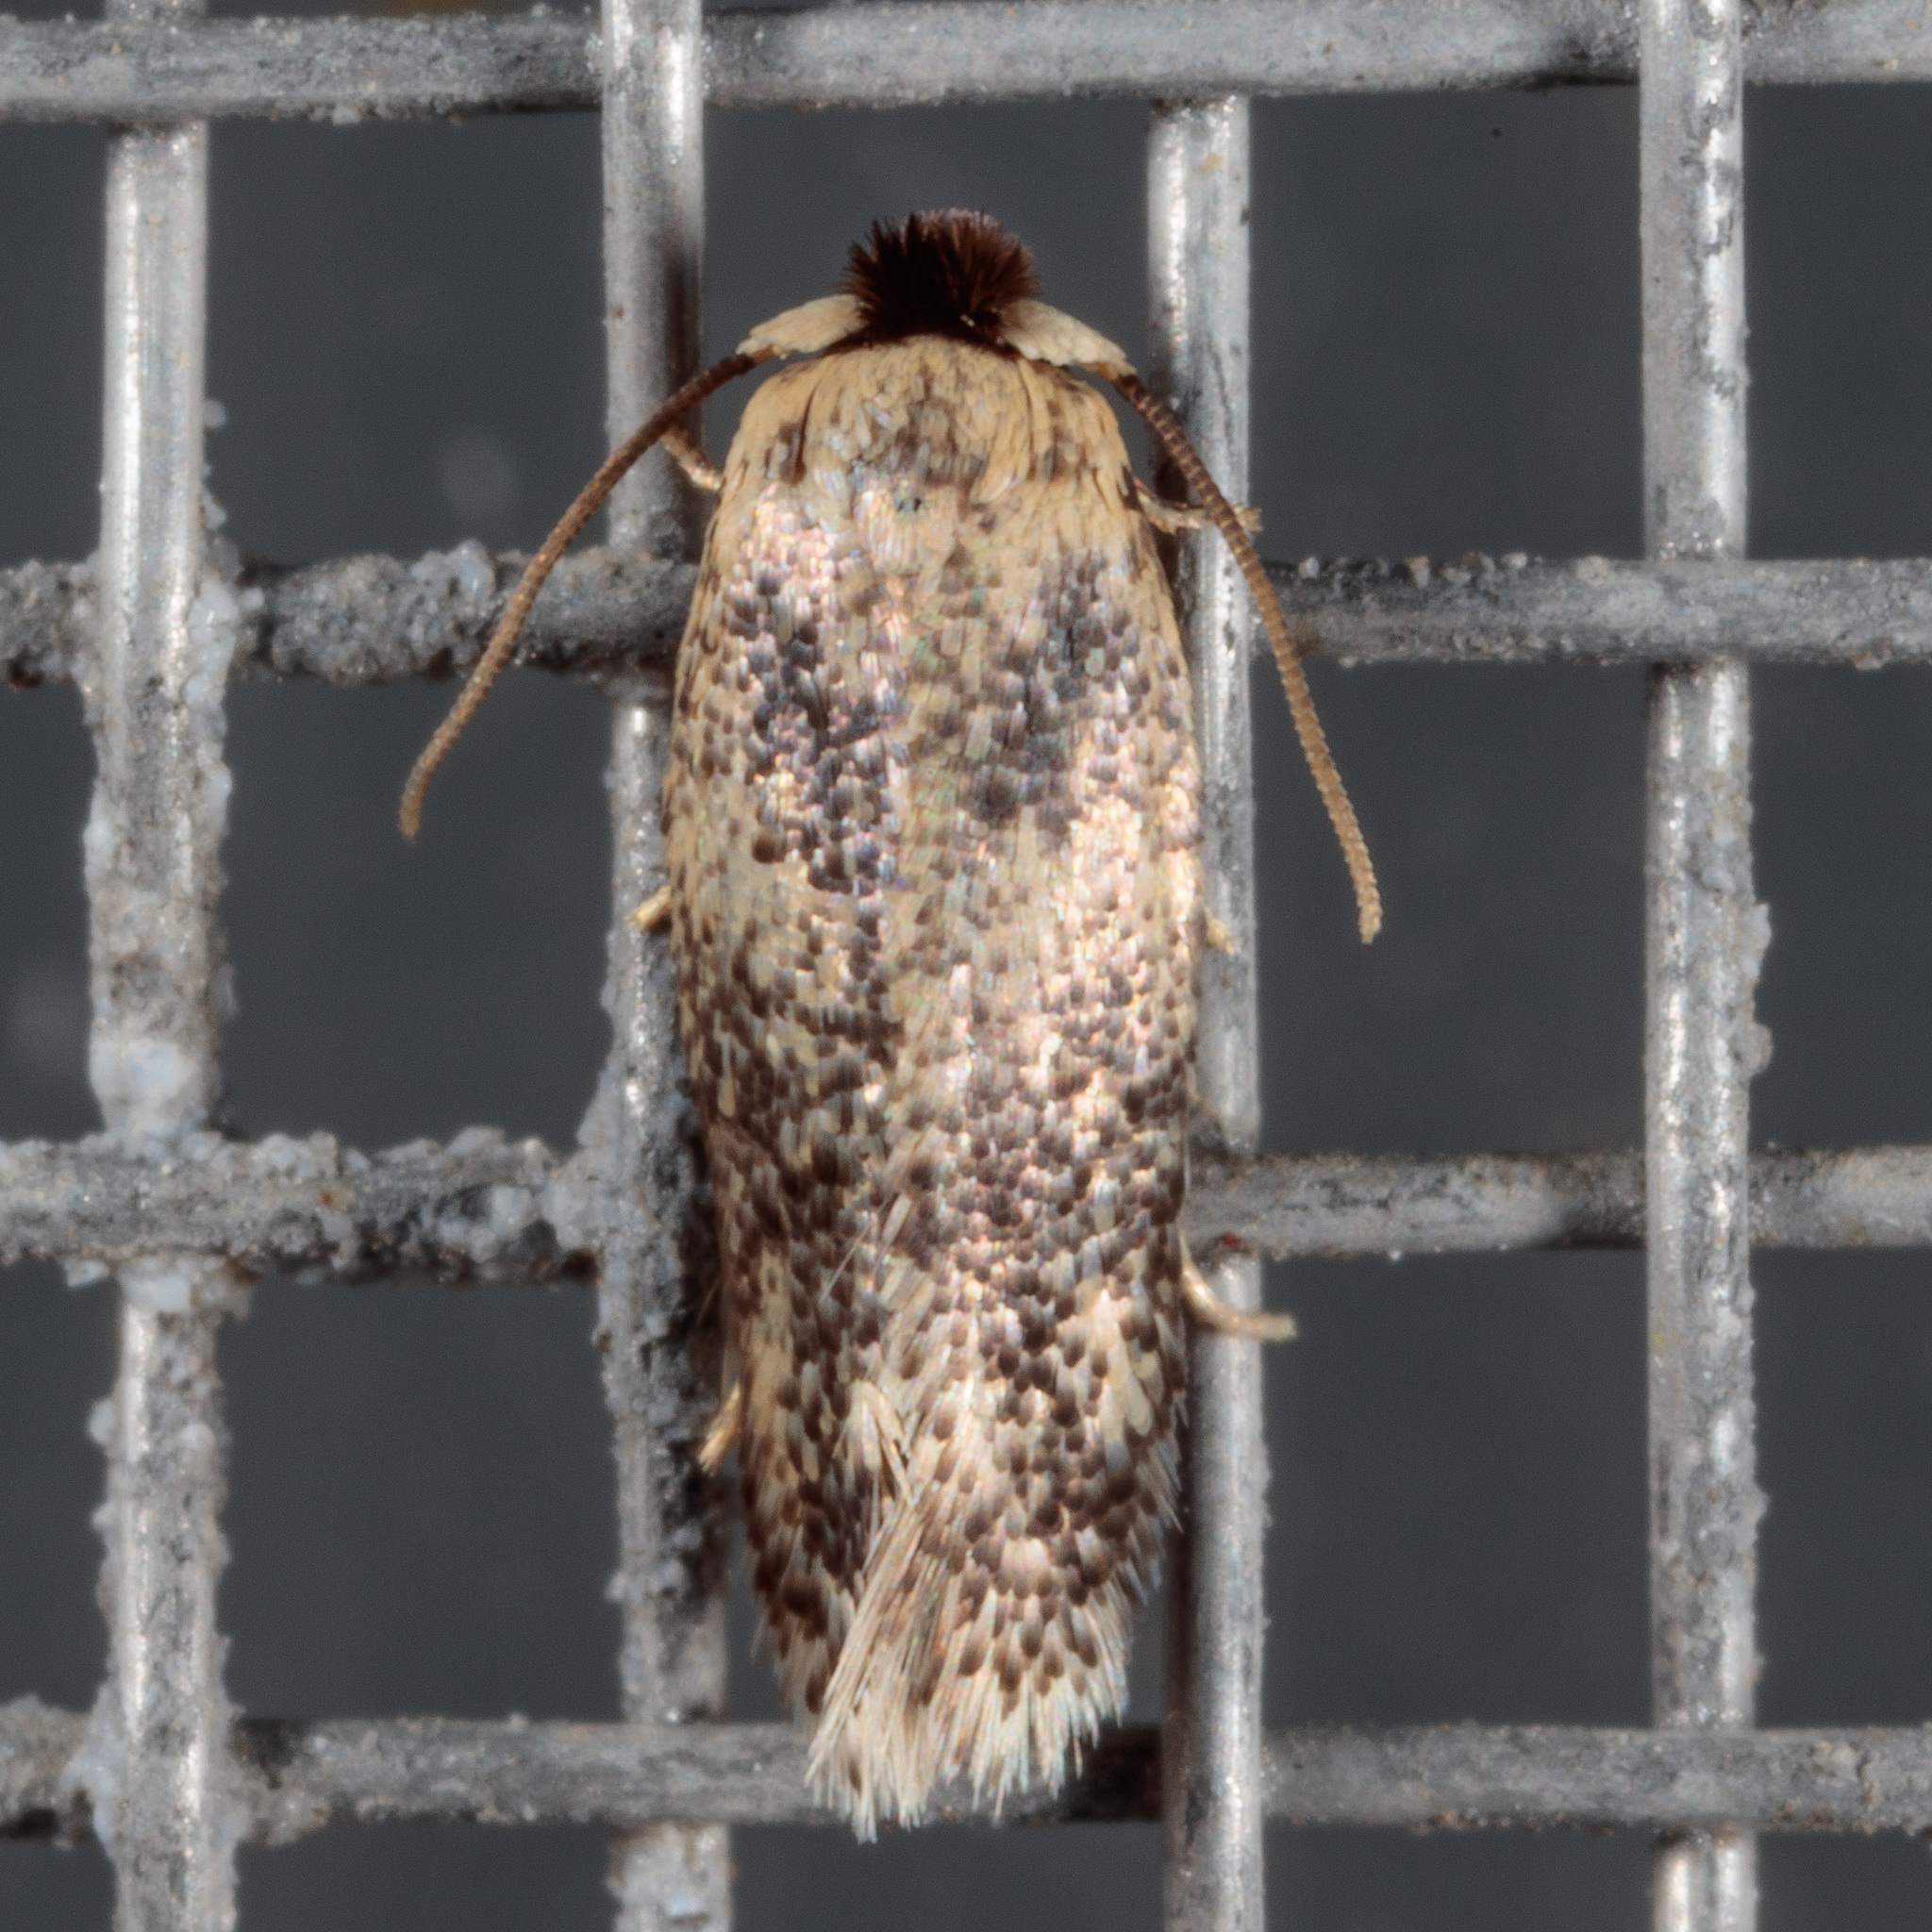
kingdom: Animalia
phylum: Arthropoda
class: Insecta
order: Lepidoptera
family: Nepticulidae
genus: Zimmermannia
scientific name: Zimmermannia bosquella
